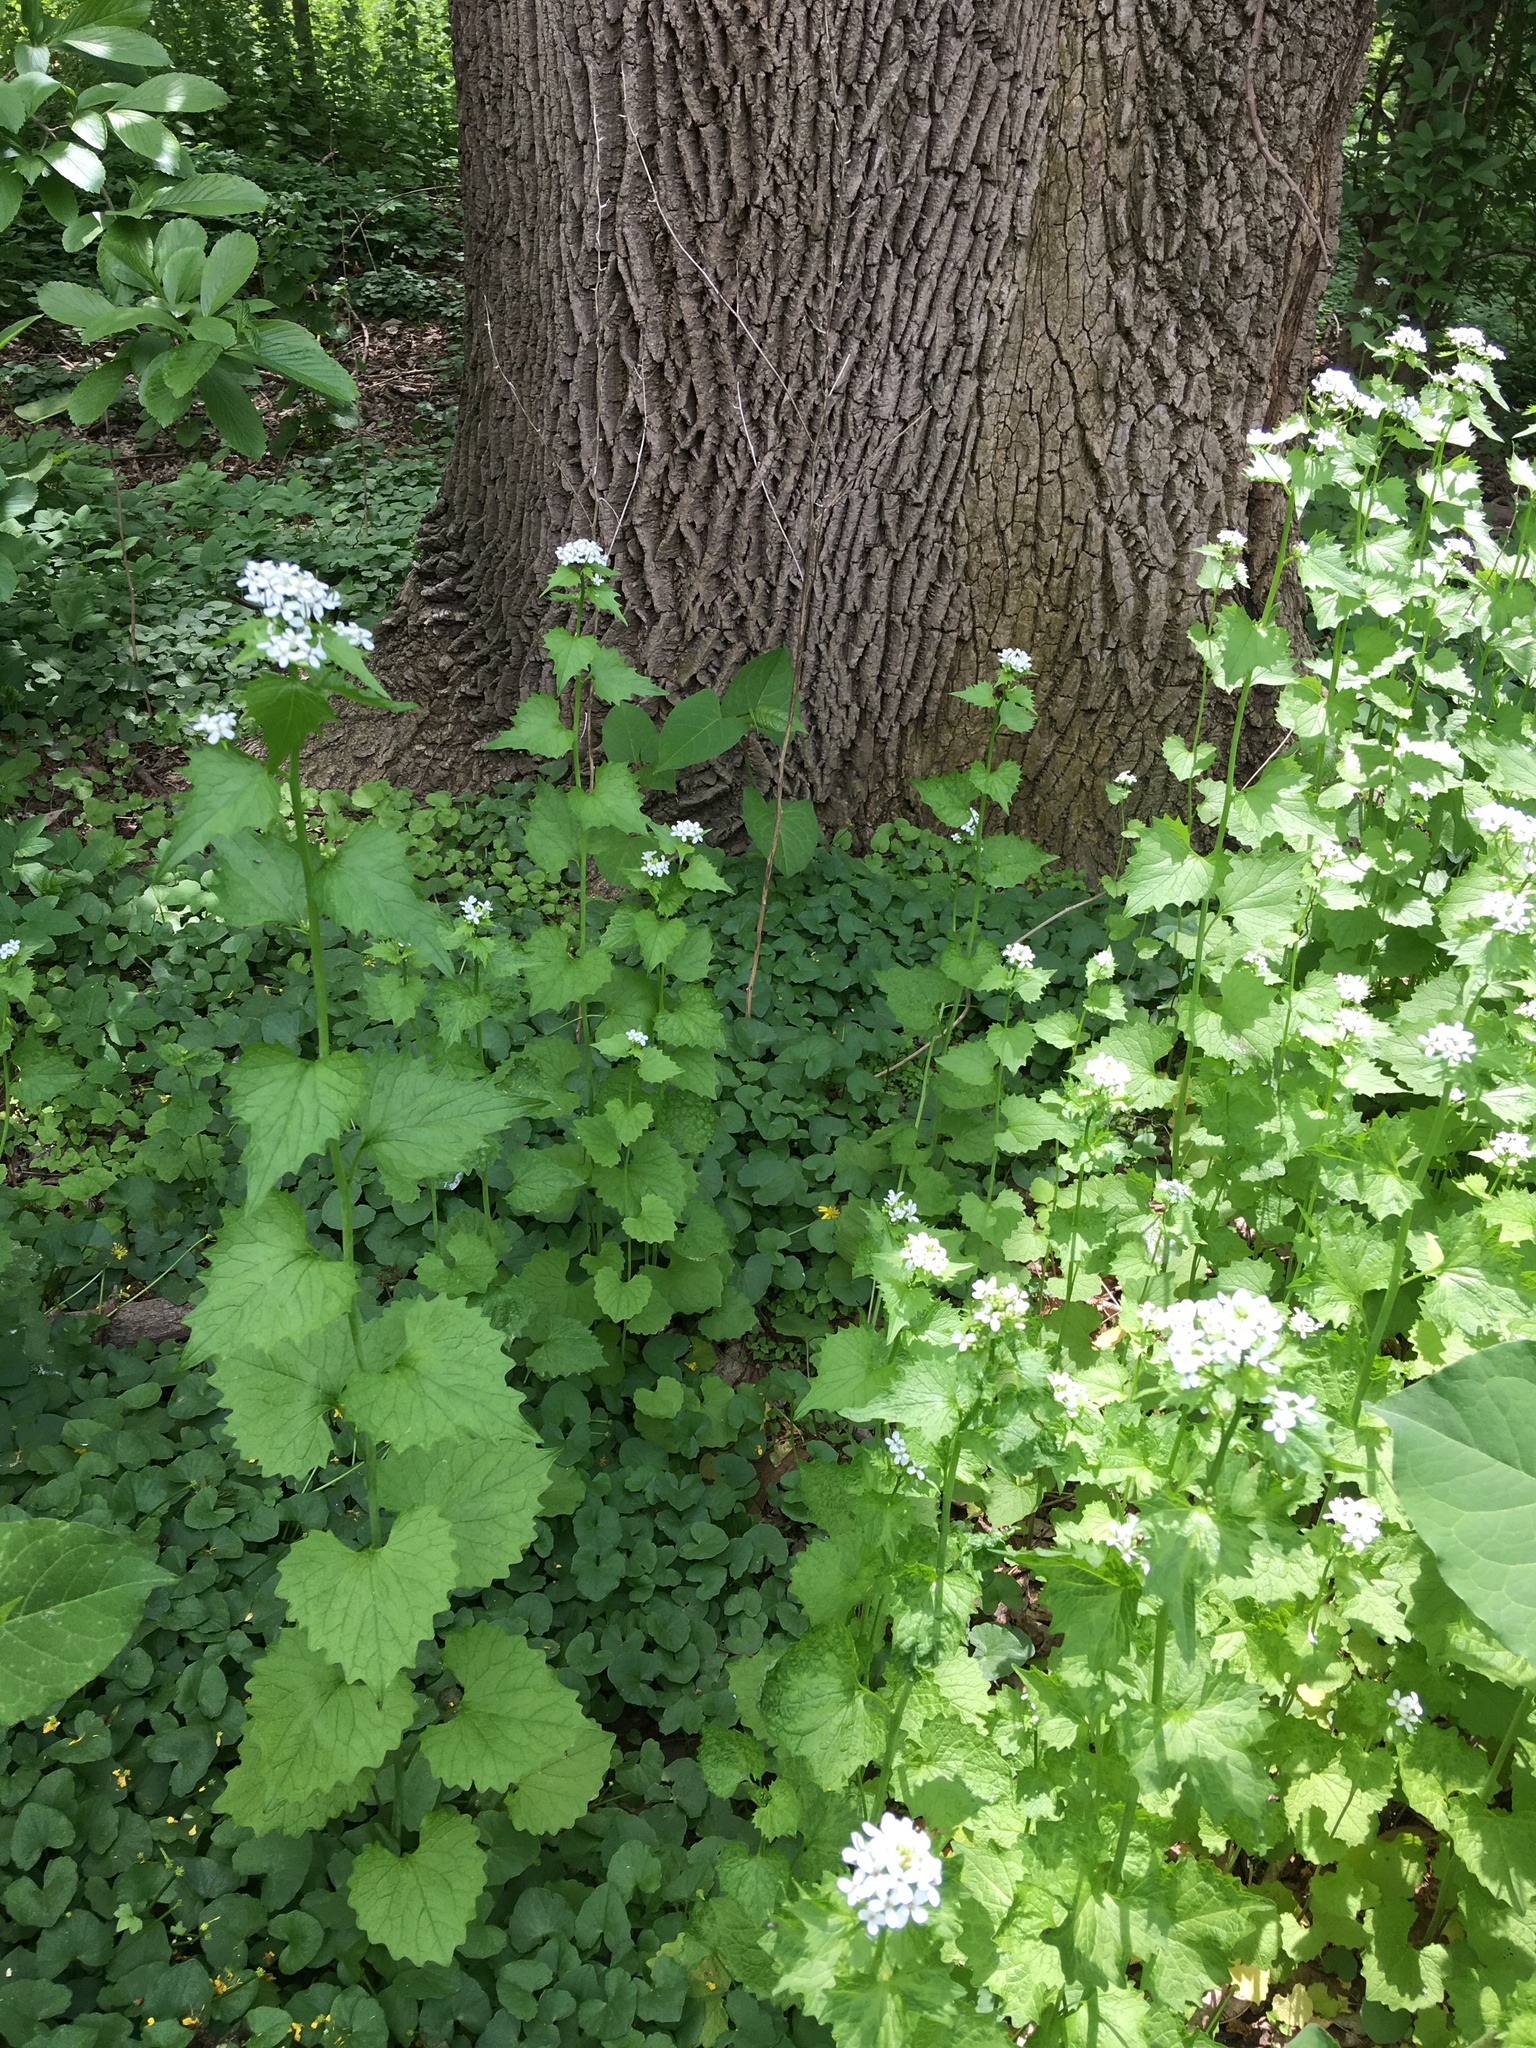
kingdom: Plantae
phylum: Tracheophyta
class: Magnoliopsida
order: Brassicales
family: Brassicaceae
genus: Alliaria
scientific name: Alliaria petiolata
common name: Garlic mustard
